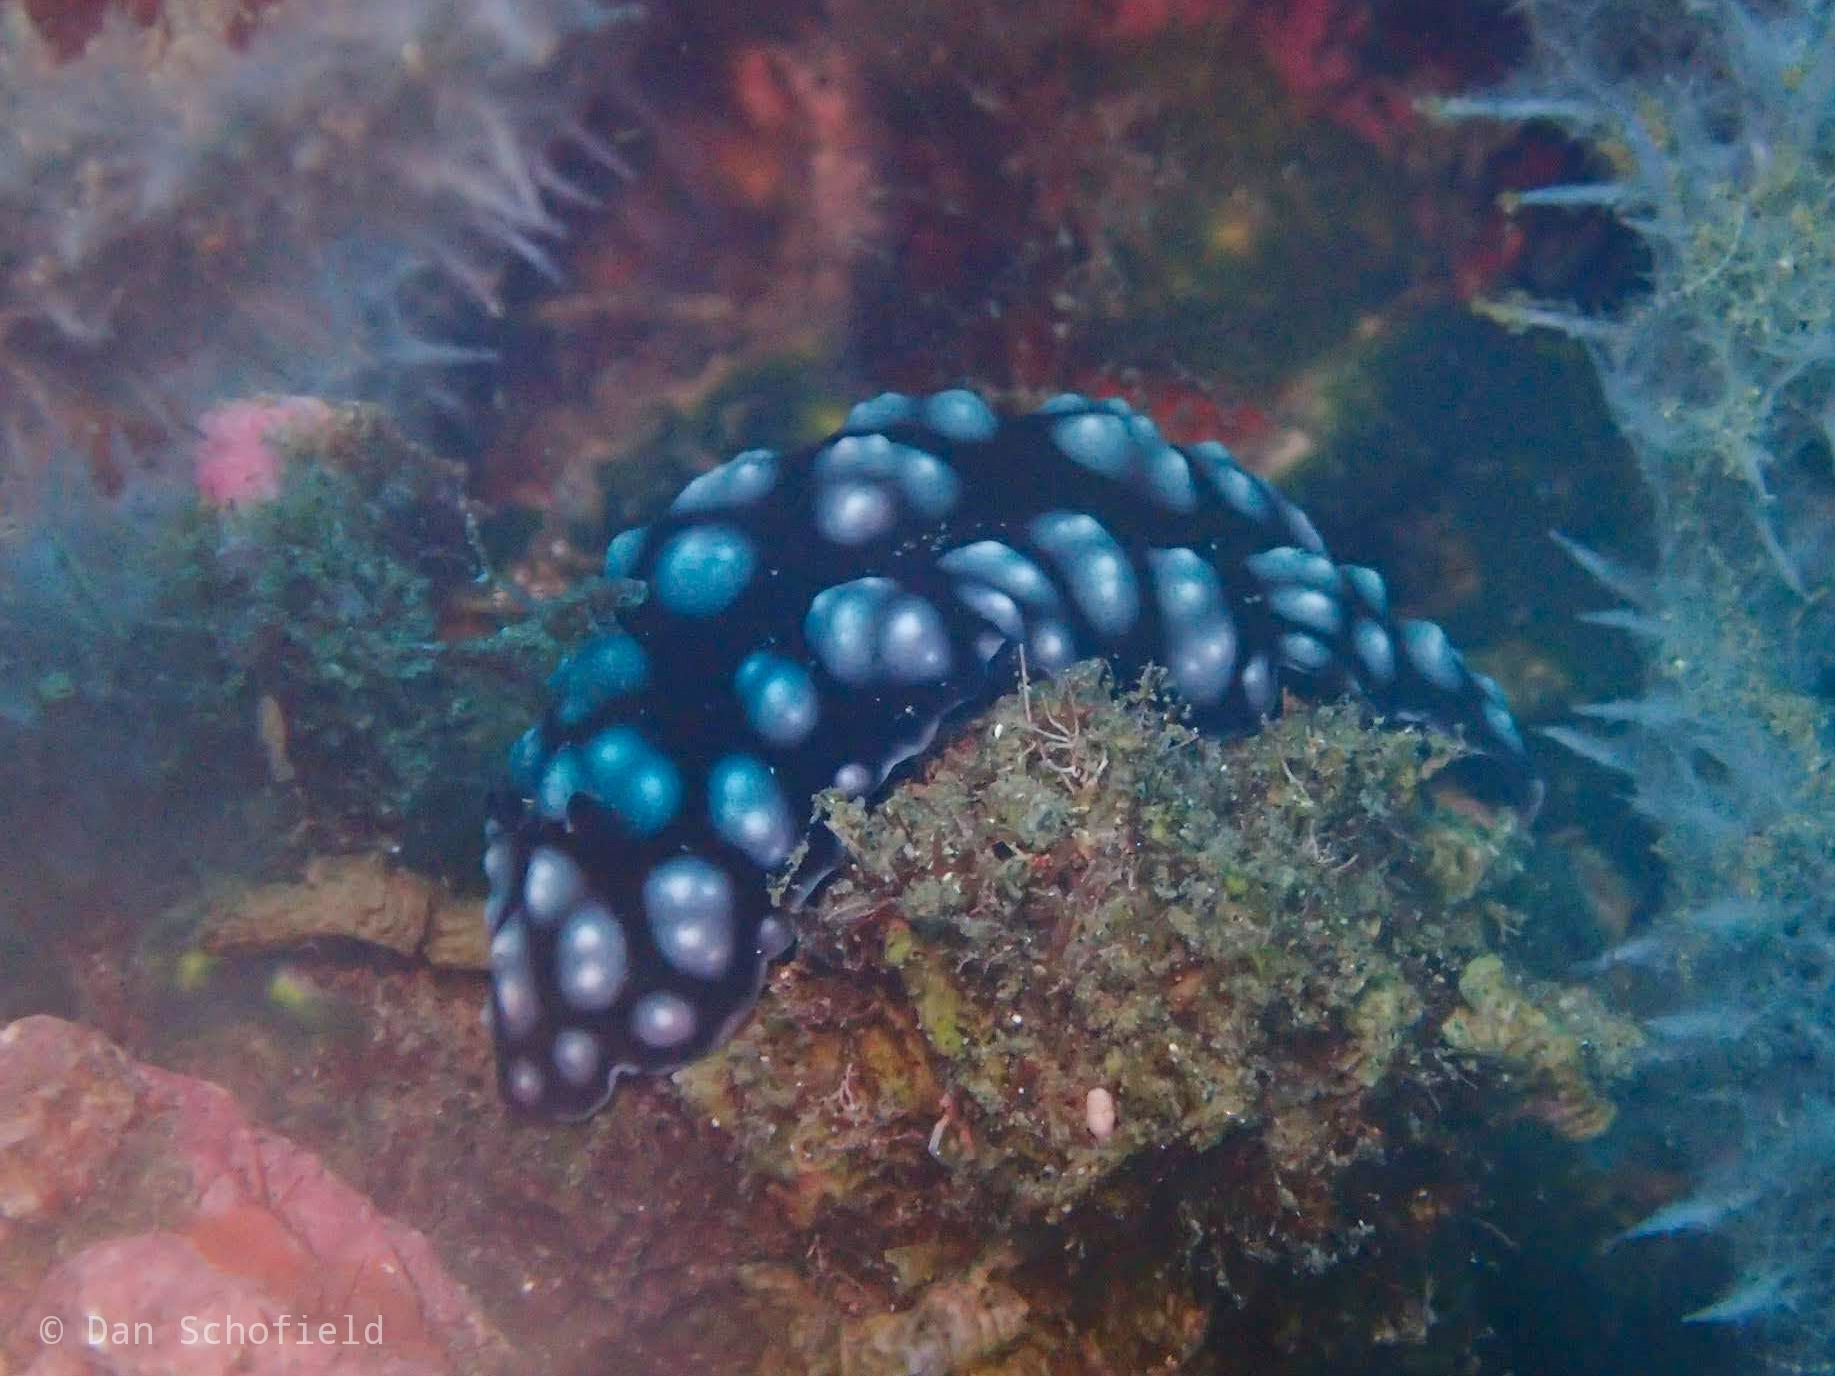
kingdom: Animalia
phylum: Mollusca
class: Gastropoda
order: Nudibranchia
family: Phyllidiidae
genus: Phyllidiella
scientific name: Phyllidiella pustulosa
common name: Pustular phyllidia
